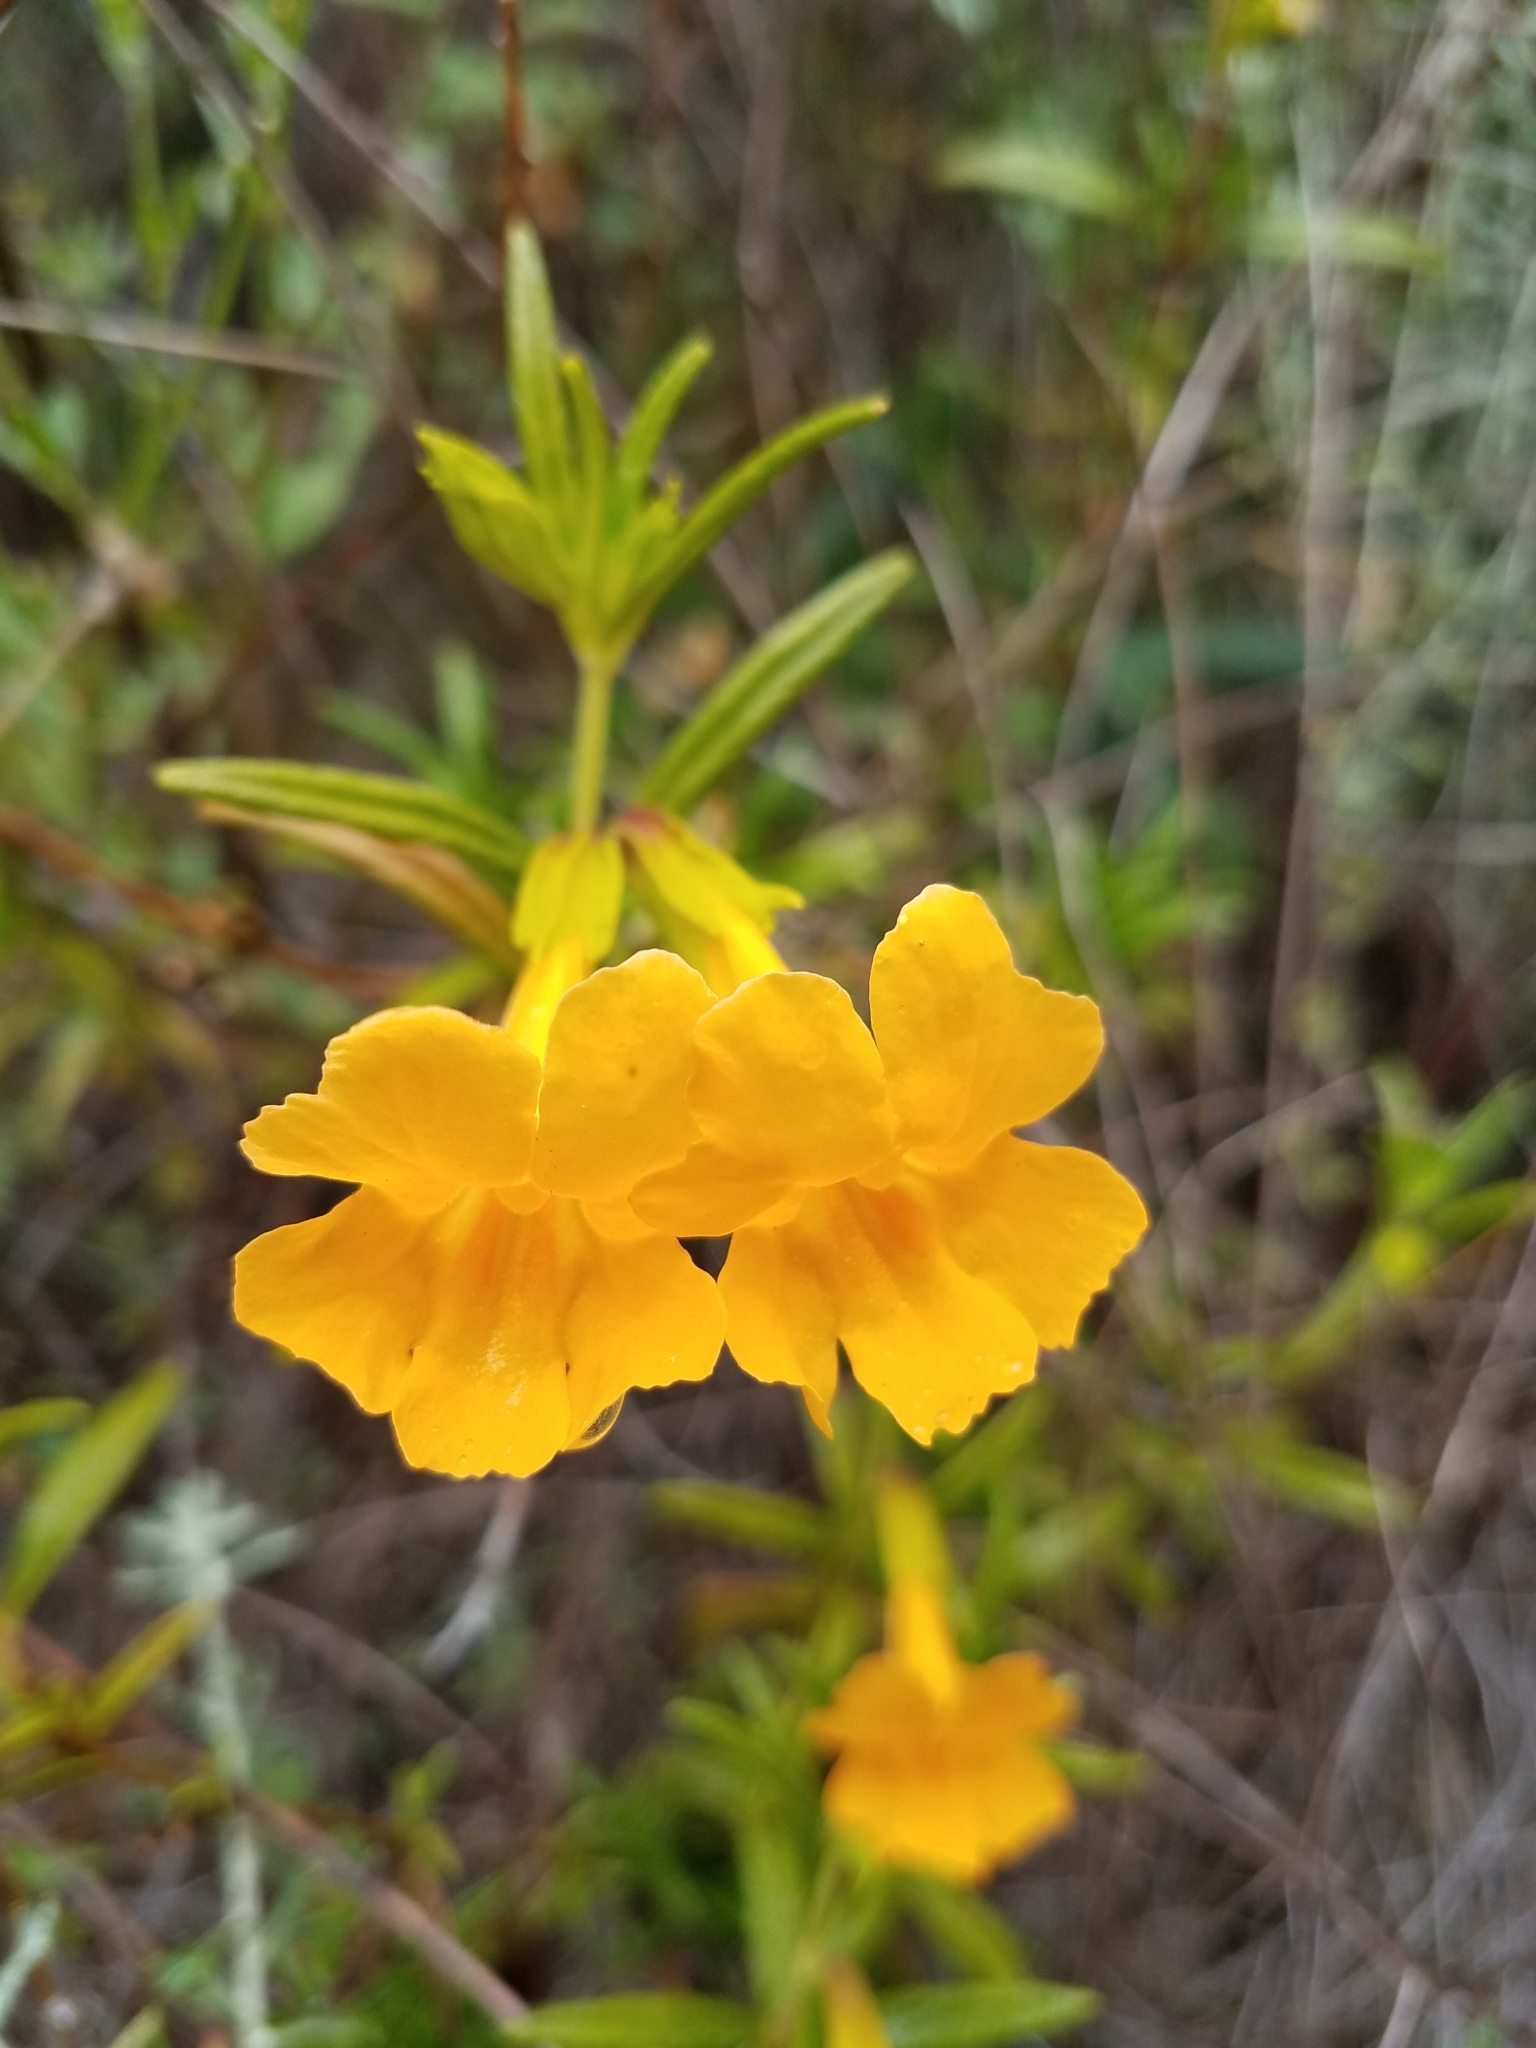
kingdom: Plantae
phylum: Tracheophyta
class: Magnoliopsida
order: Lamiales
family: Phrymaceae
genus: Diplacus
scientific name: Diplacus aurantiacus
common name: Bush monkey-flower
